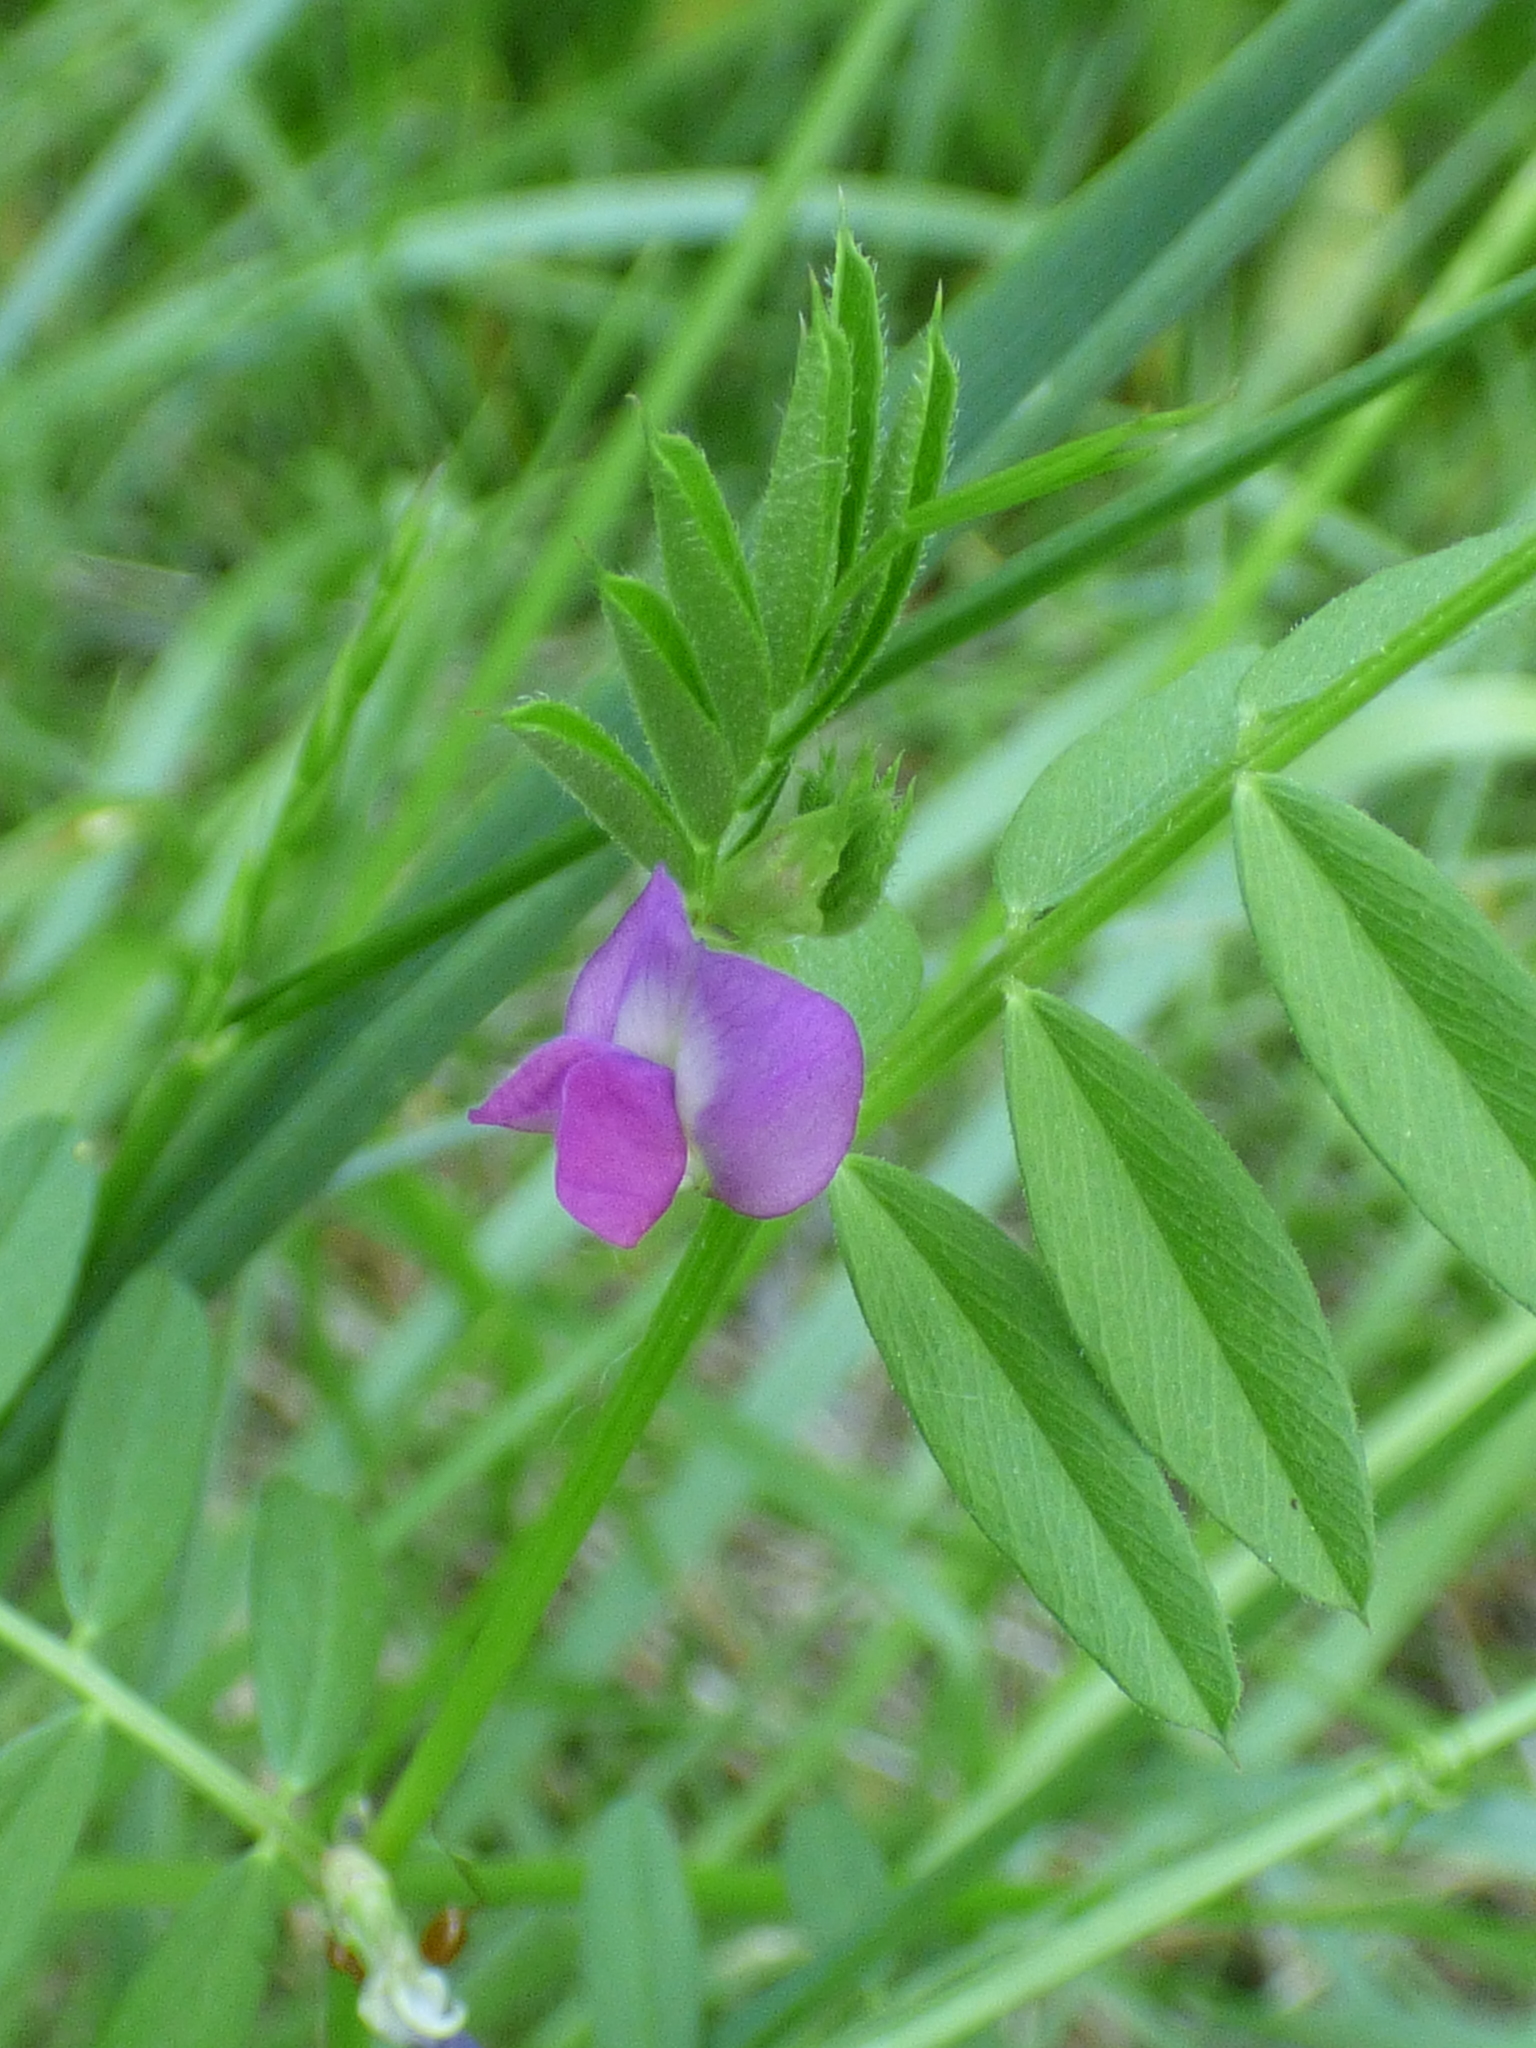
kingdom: Plantae
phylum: Tracheophyta
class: Magnoliopsida
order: Fabales
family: Fabaceae
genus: Vicia
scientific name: Vicia sativa
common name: Garden vetch
